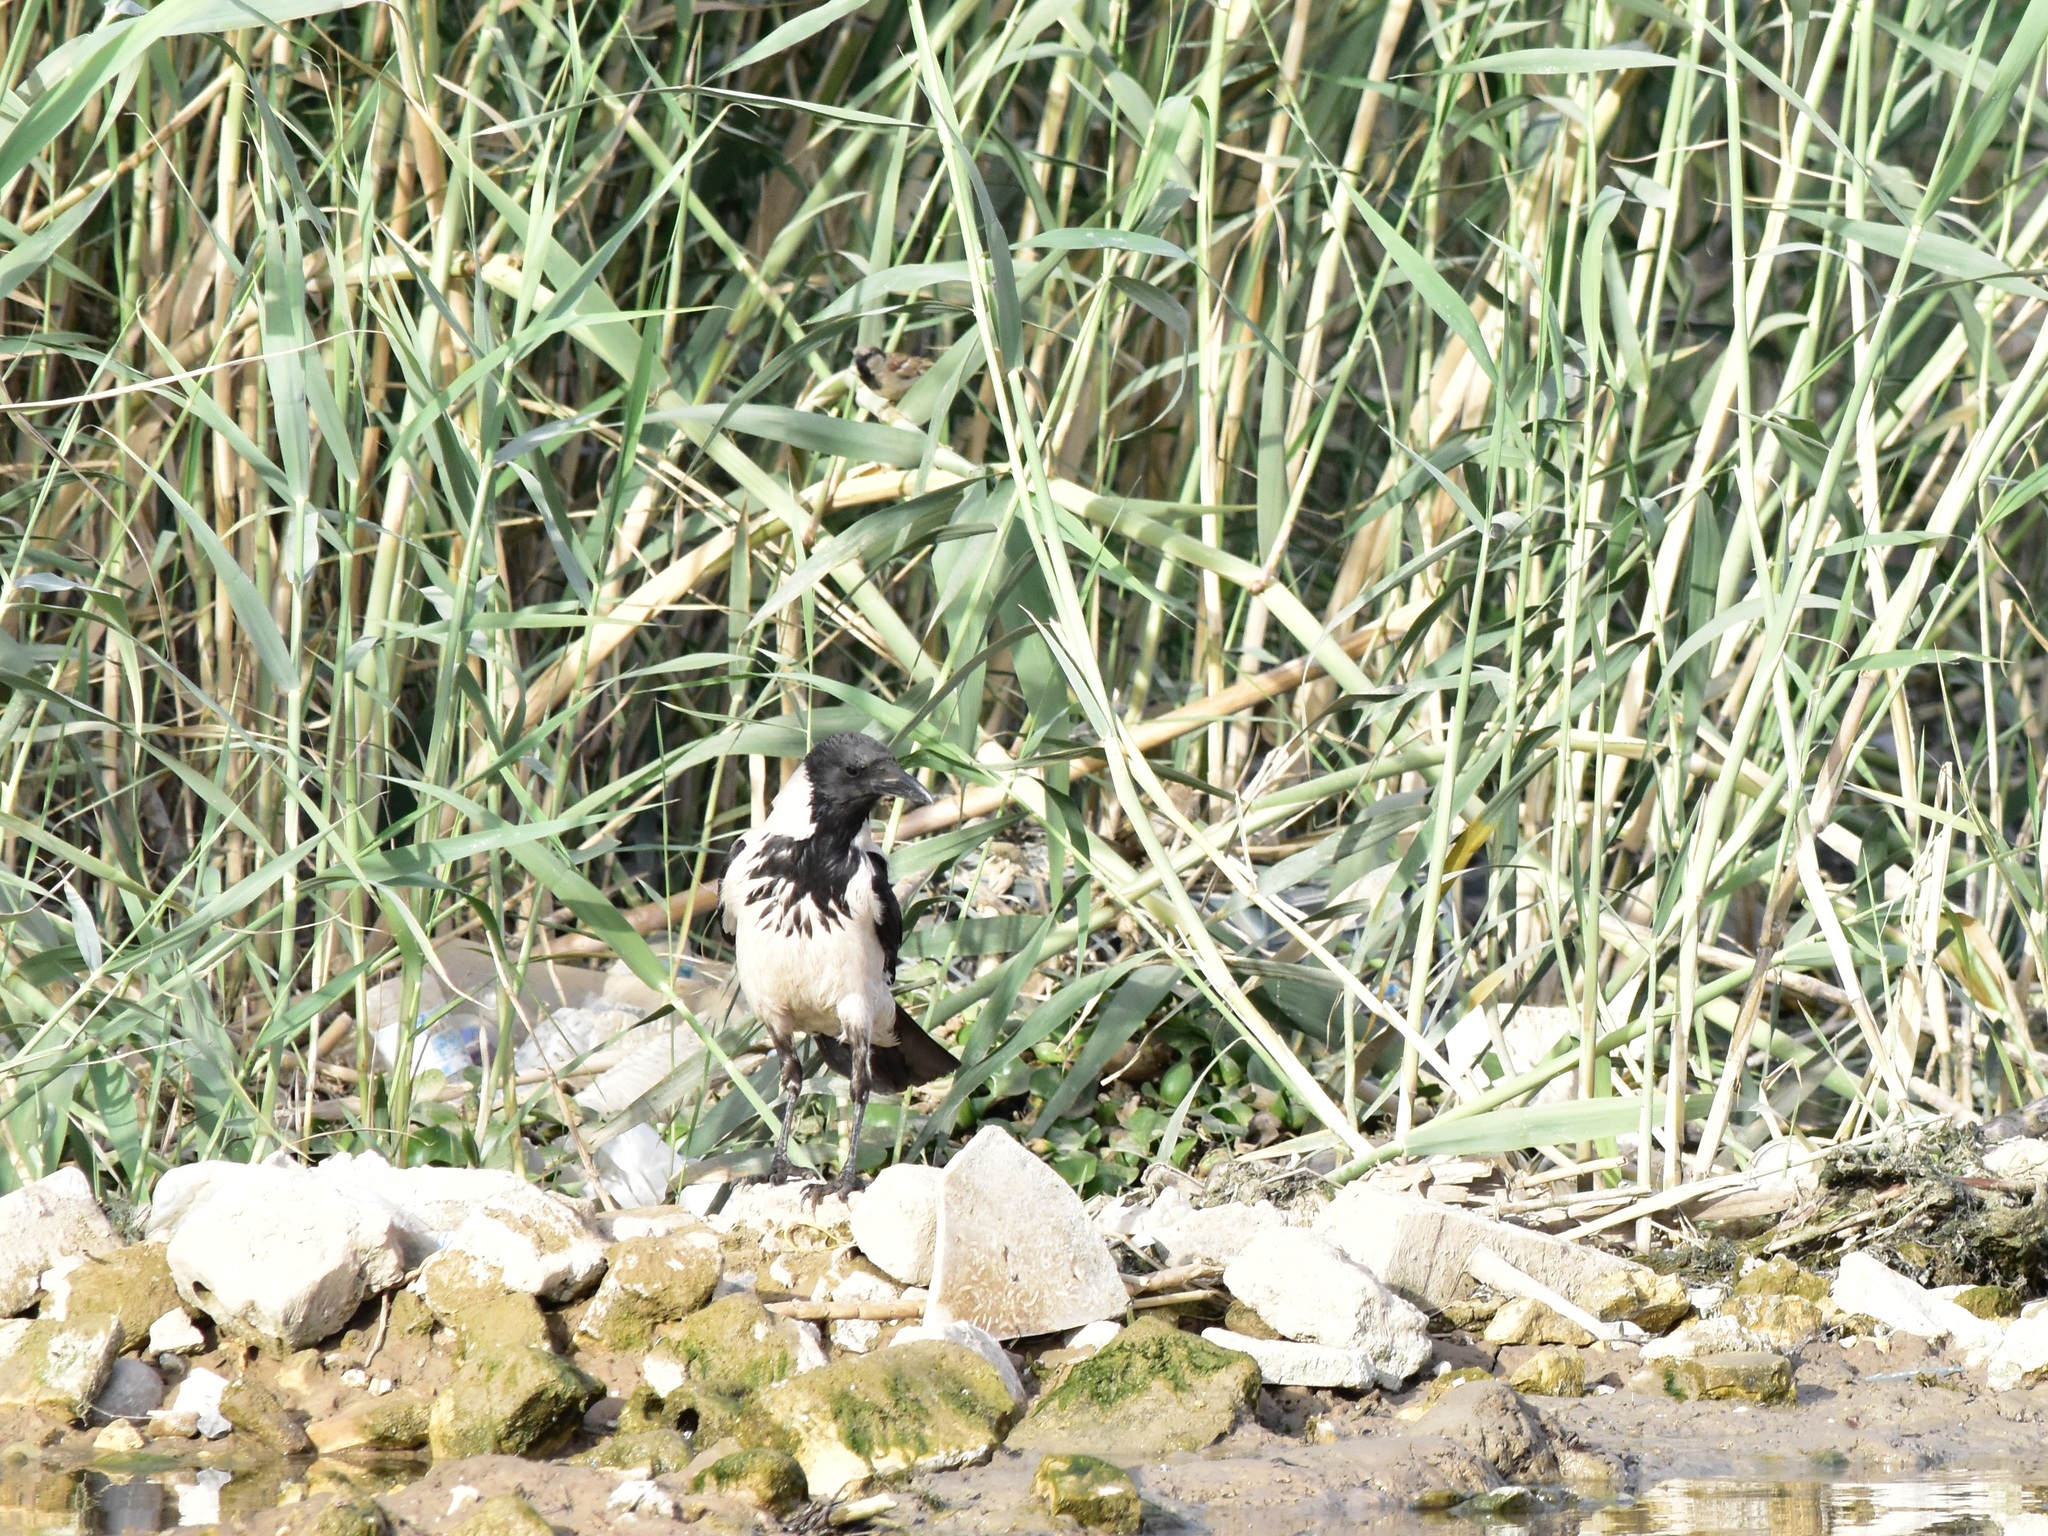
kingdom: Animalia
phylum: Chordata
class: Aves
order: Passeriformes
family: Corvidae
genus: Corvus
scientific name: Corvus cornix
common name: Hooded crow
